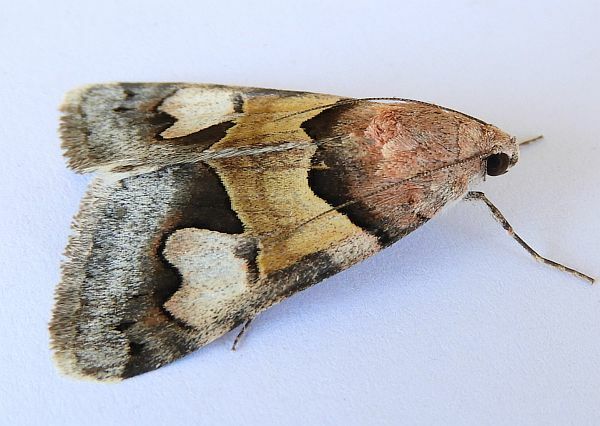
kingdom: Animalia
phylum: Arthropoda
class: Insecta
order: Lepidoptera
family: Erebidae
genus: Drasteria
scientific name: Drasteria pallescens
